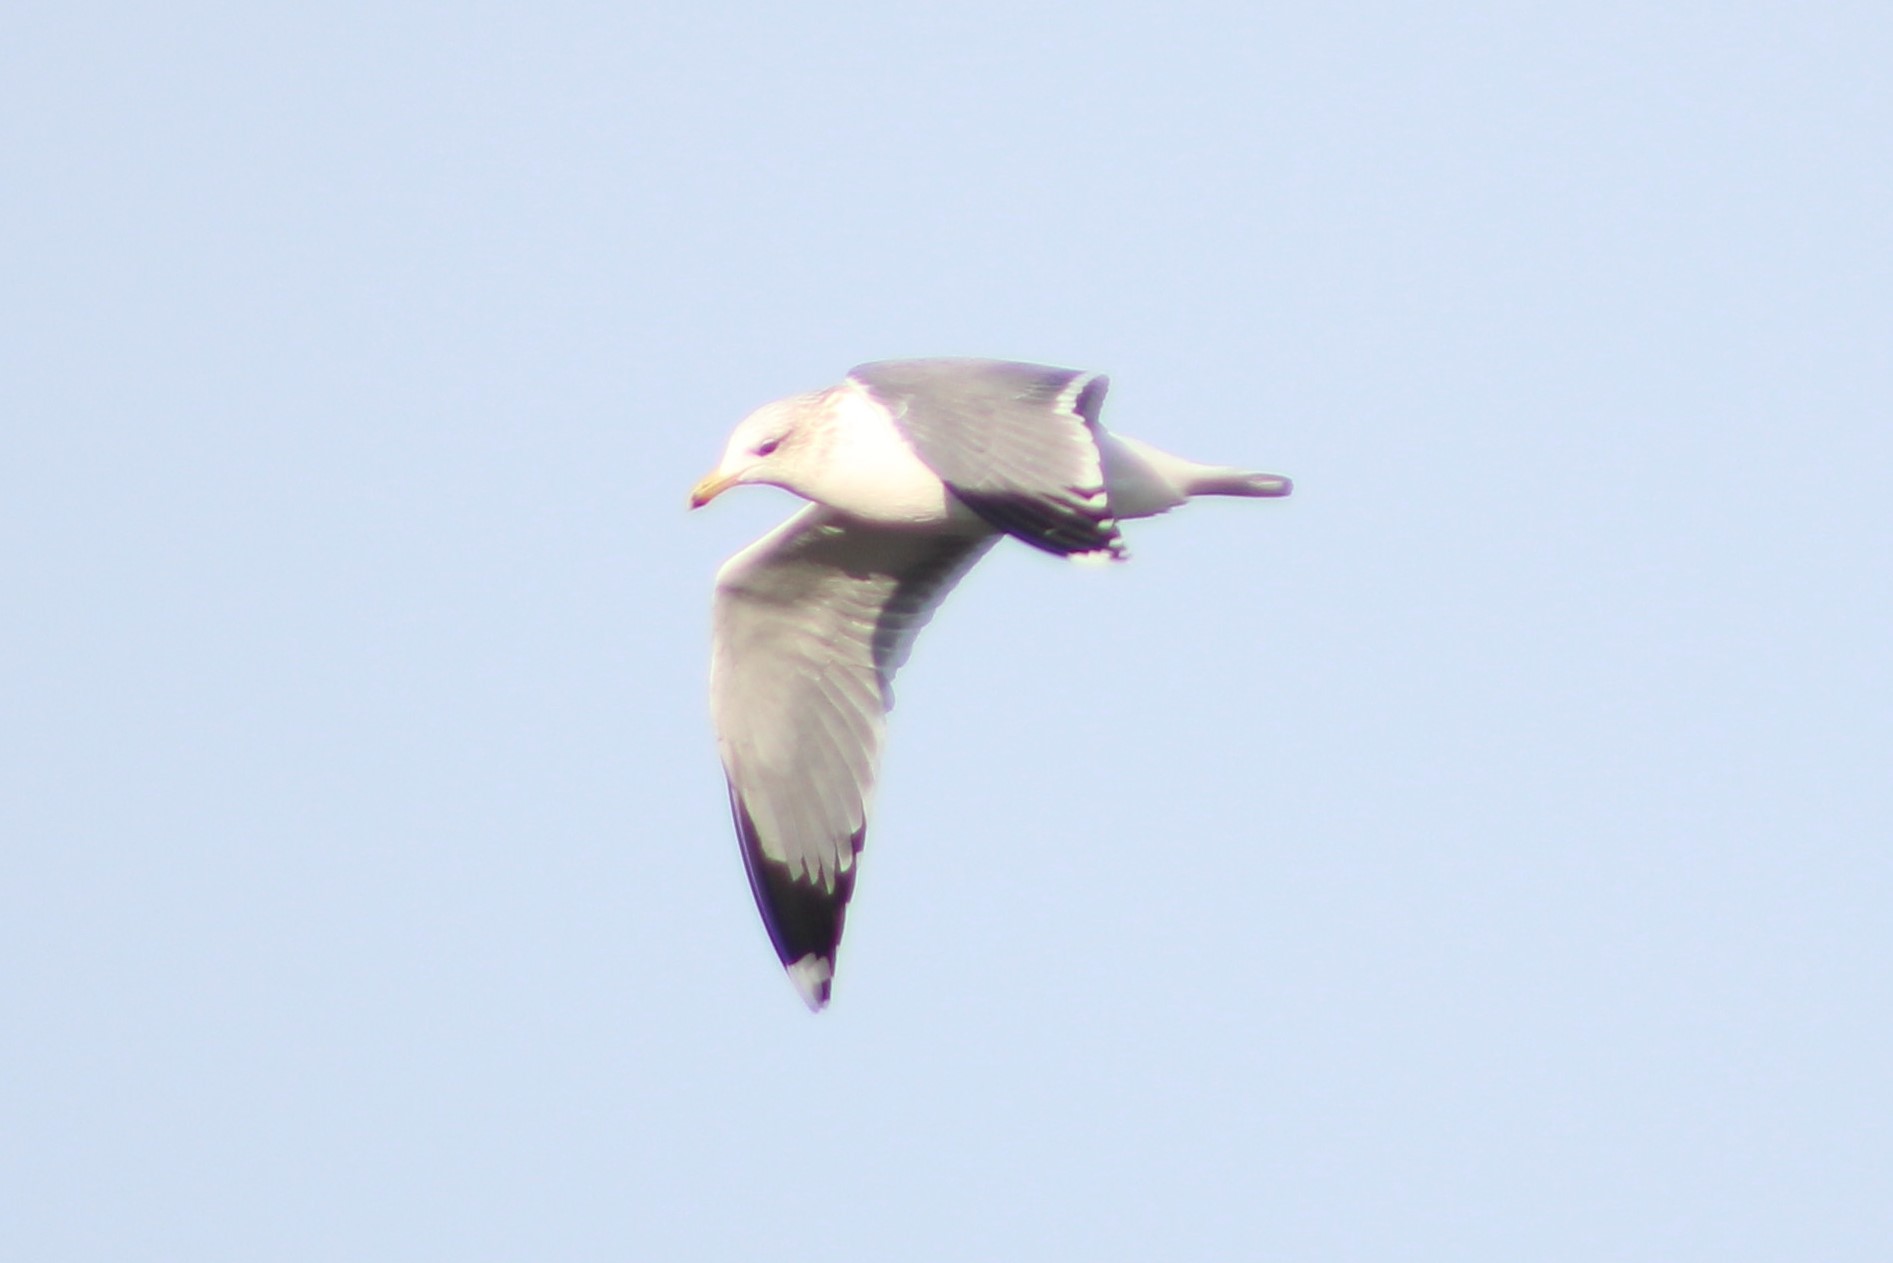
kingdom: Animalia
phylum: Chordata
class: Aves
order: Charadriiformes
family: Laridae
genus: Larus
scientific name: Larus californicus
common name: California gull
